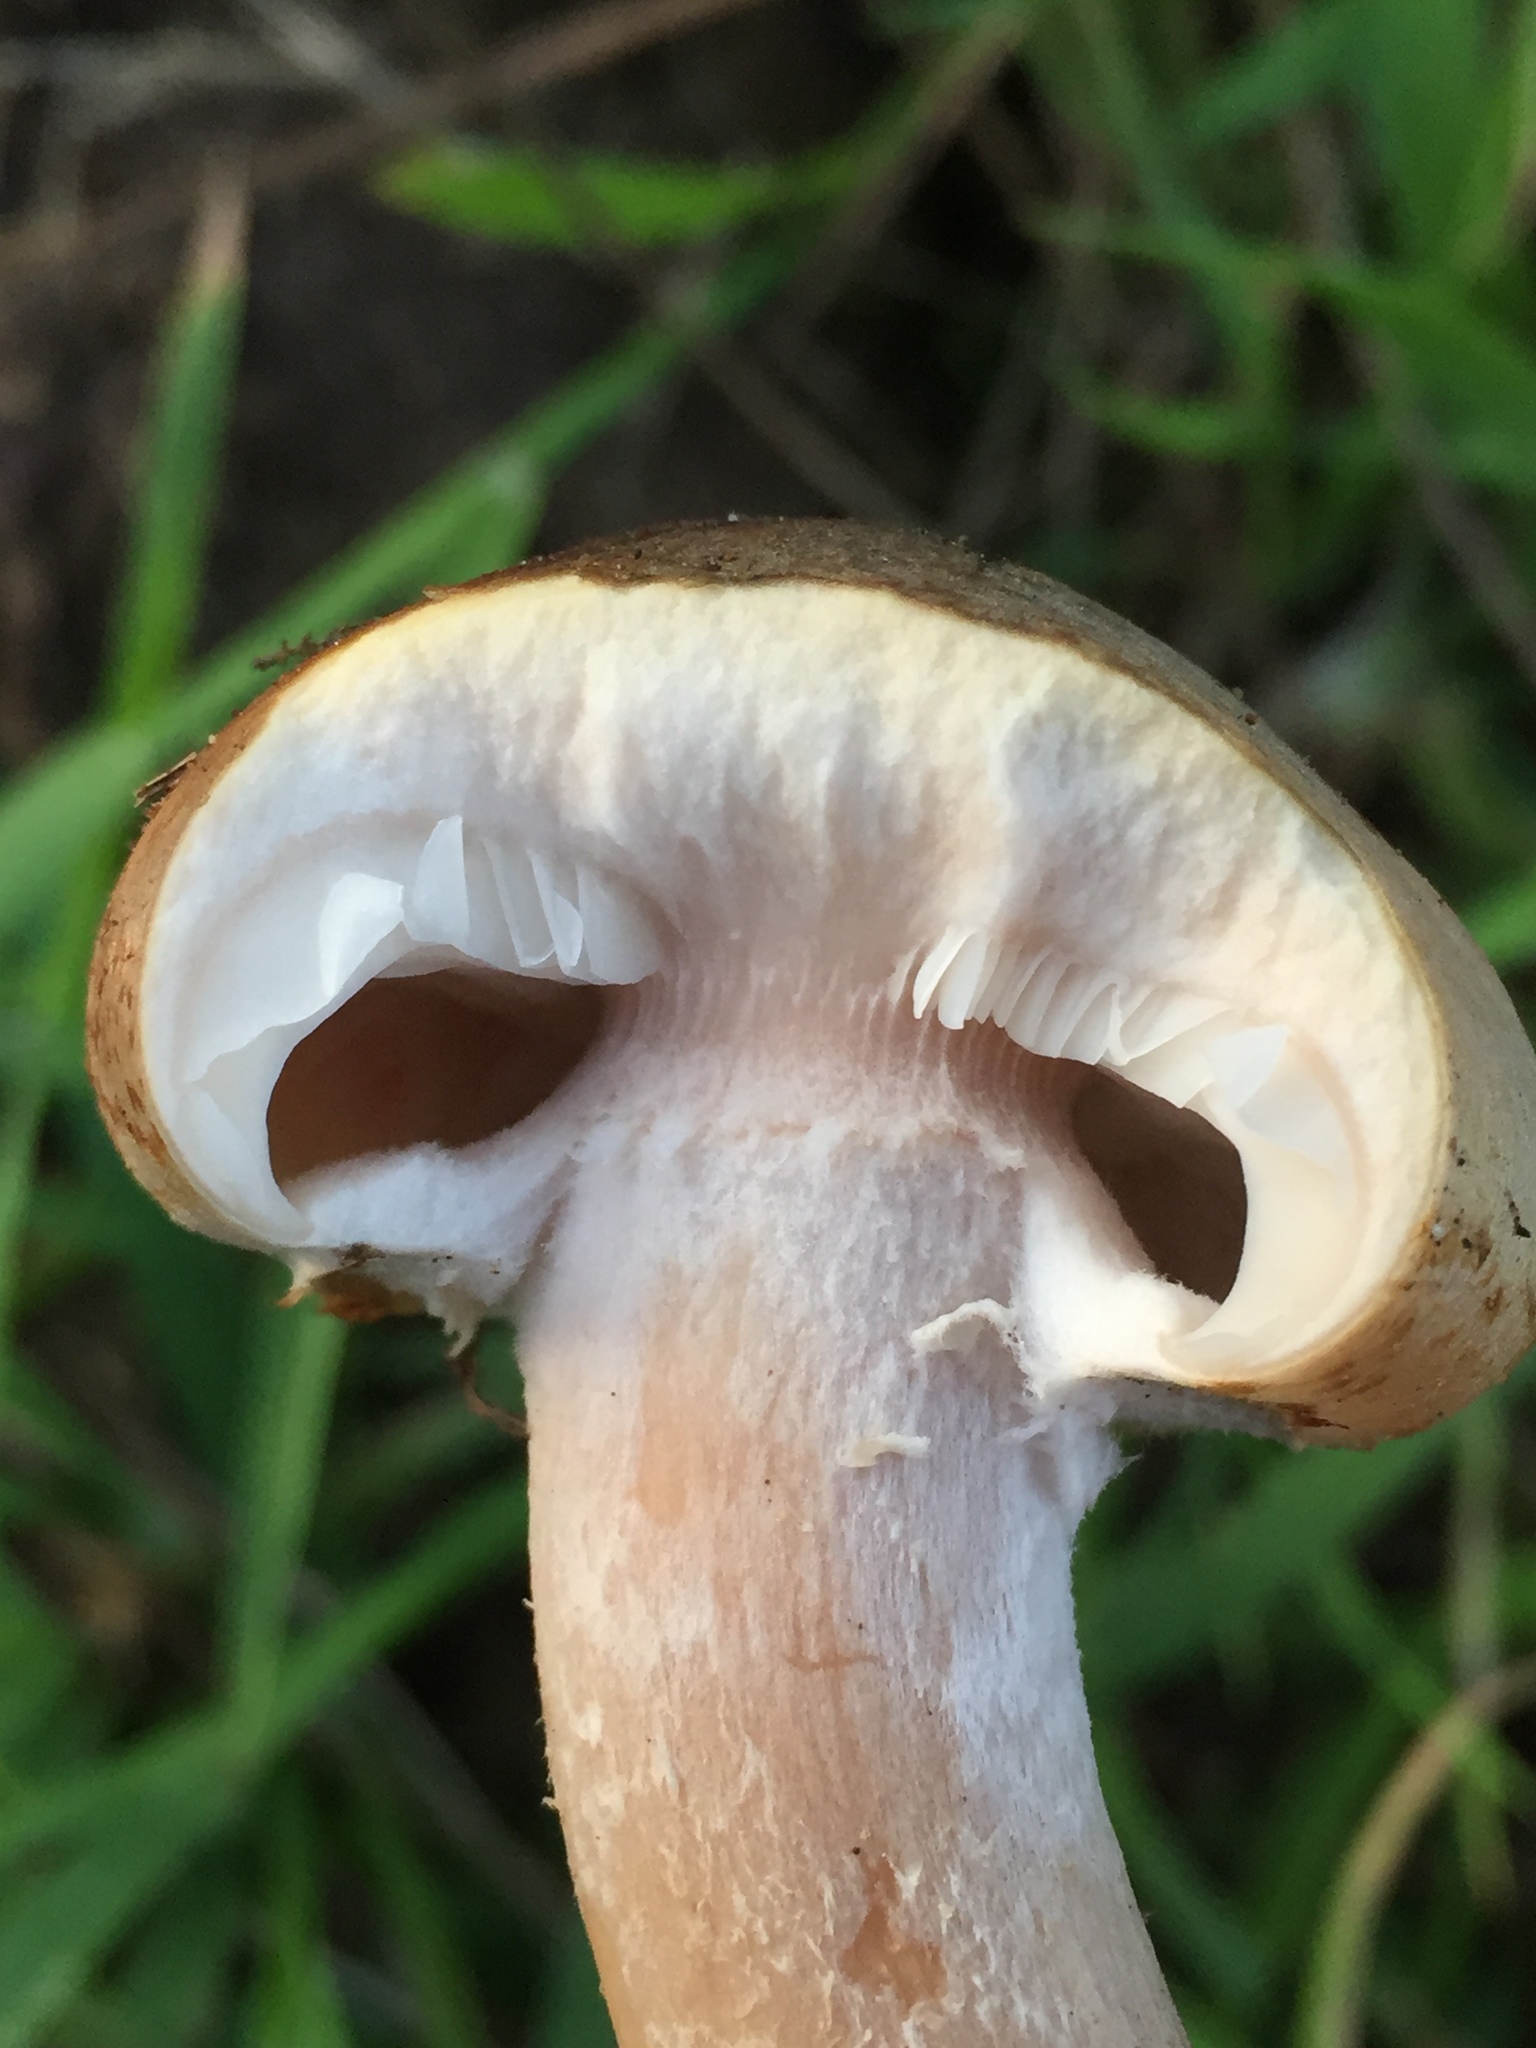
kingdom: Fungi
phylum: Basidiomycota
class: Agaricomycetes
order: Agaricales
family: Physalacriaceae
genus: Armillaria
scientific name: Armillaria mellea
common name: Honey fungus
